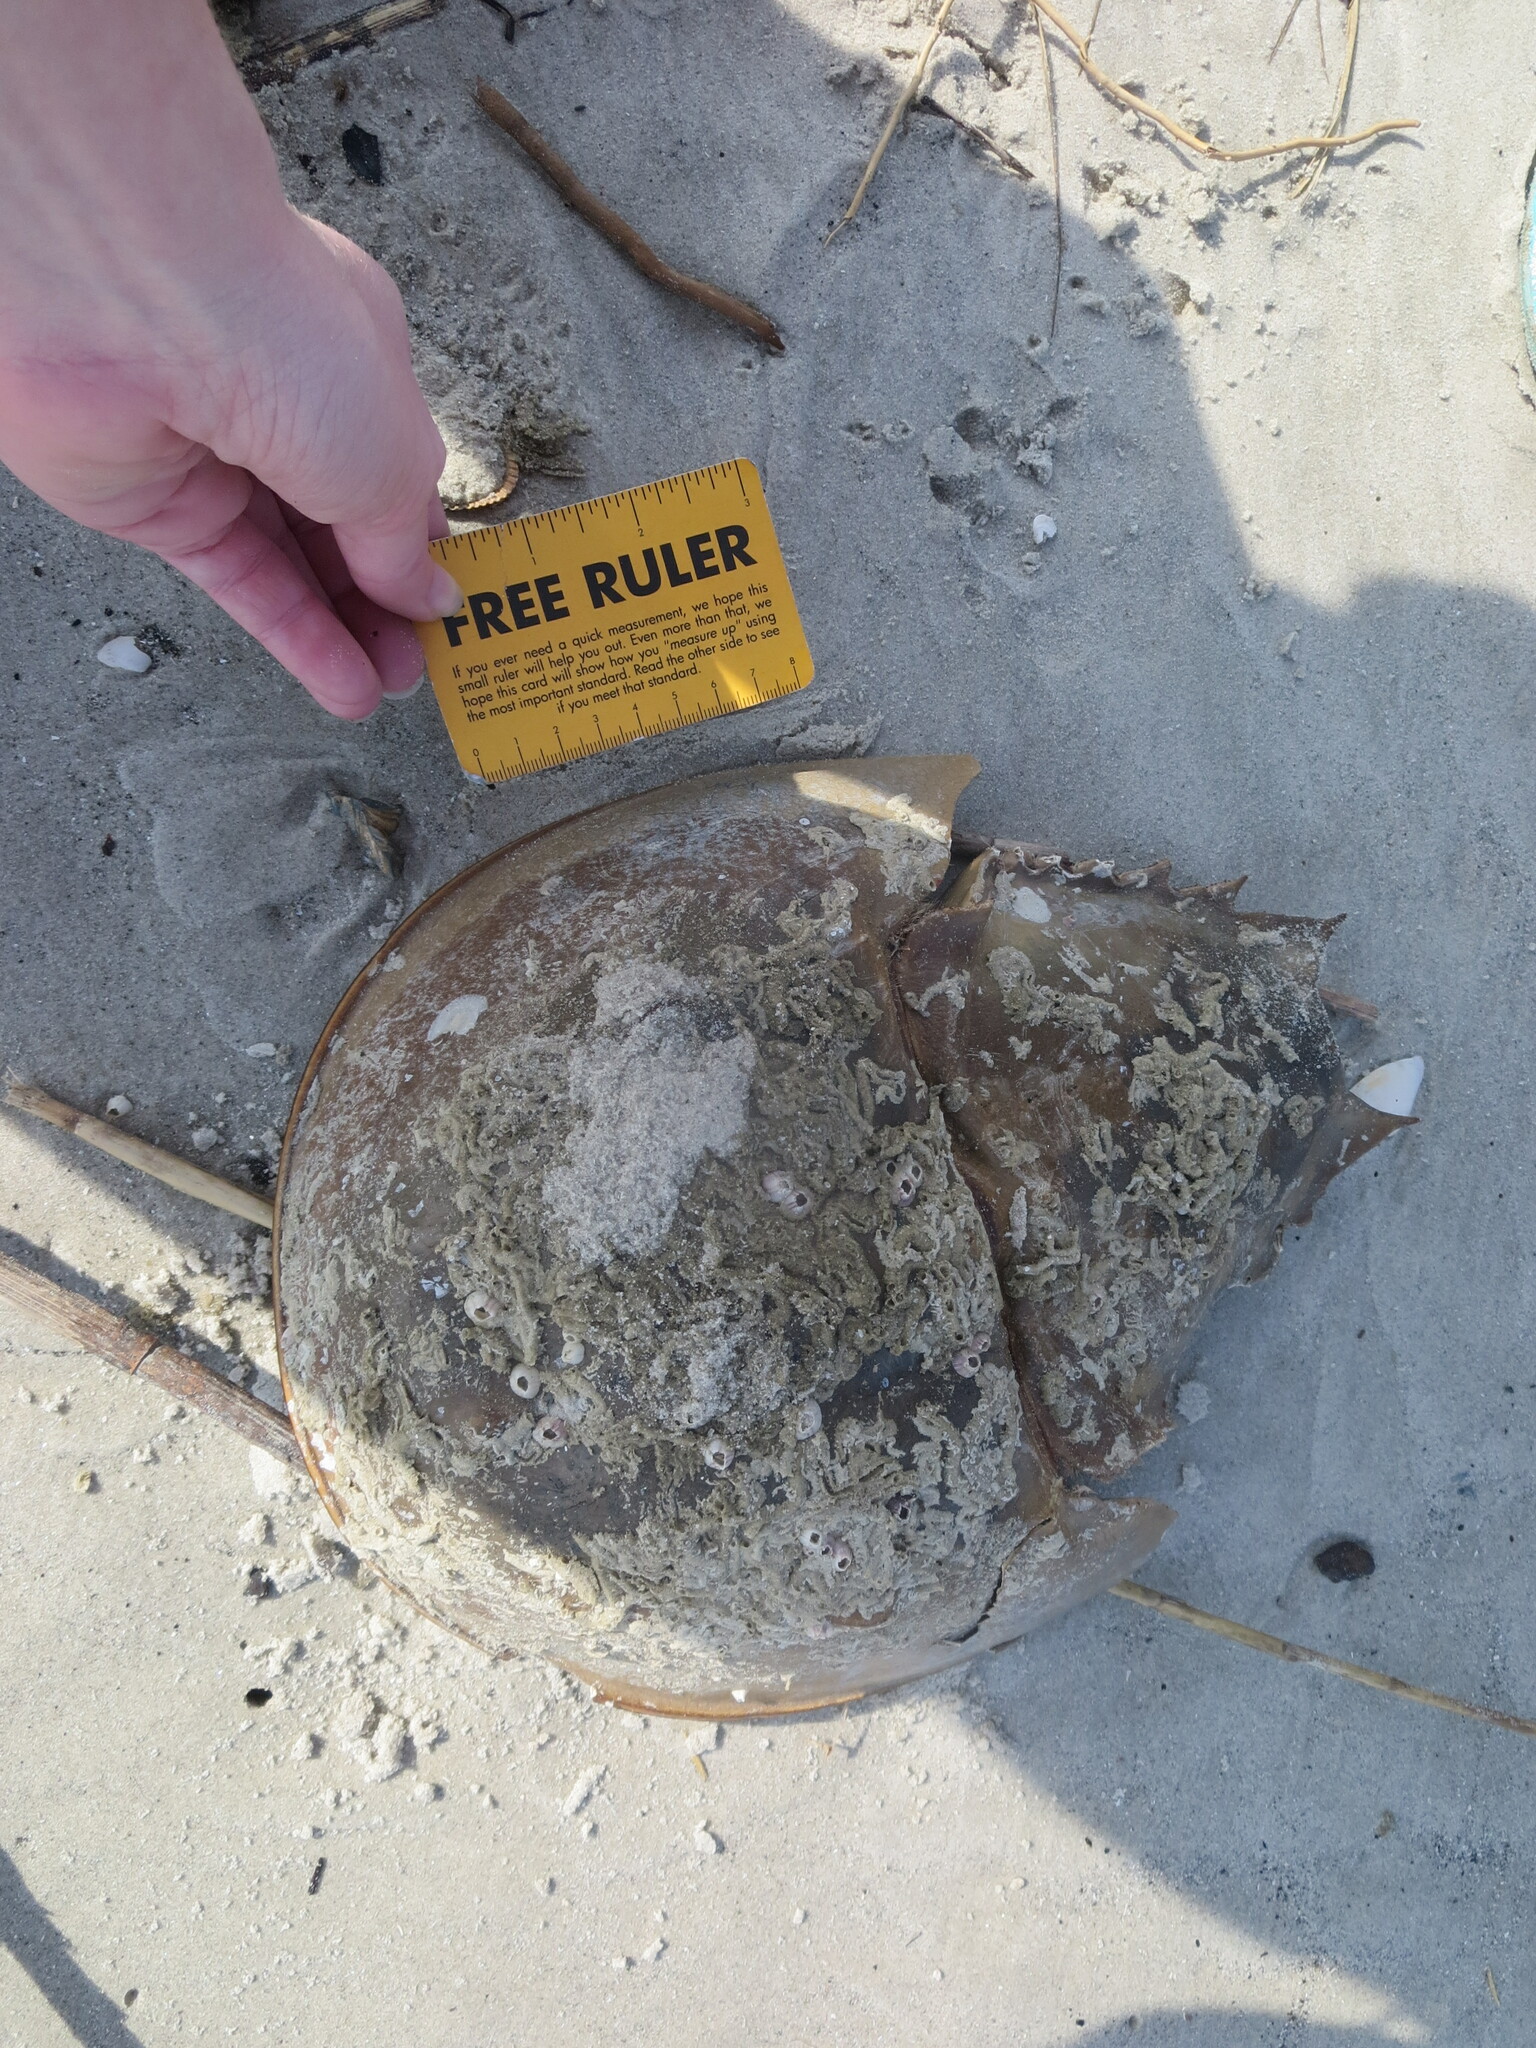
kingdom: Animalia
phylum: Arthropoda
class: Merostomata
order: Xiphosurida
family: Limulidae
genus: Limulus
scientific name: Limulus polyphemus
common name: Horseshoe crab
